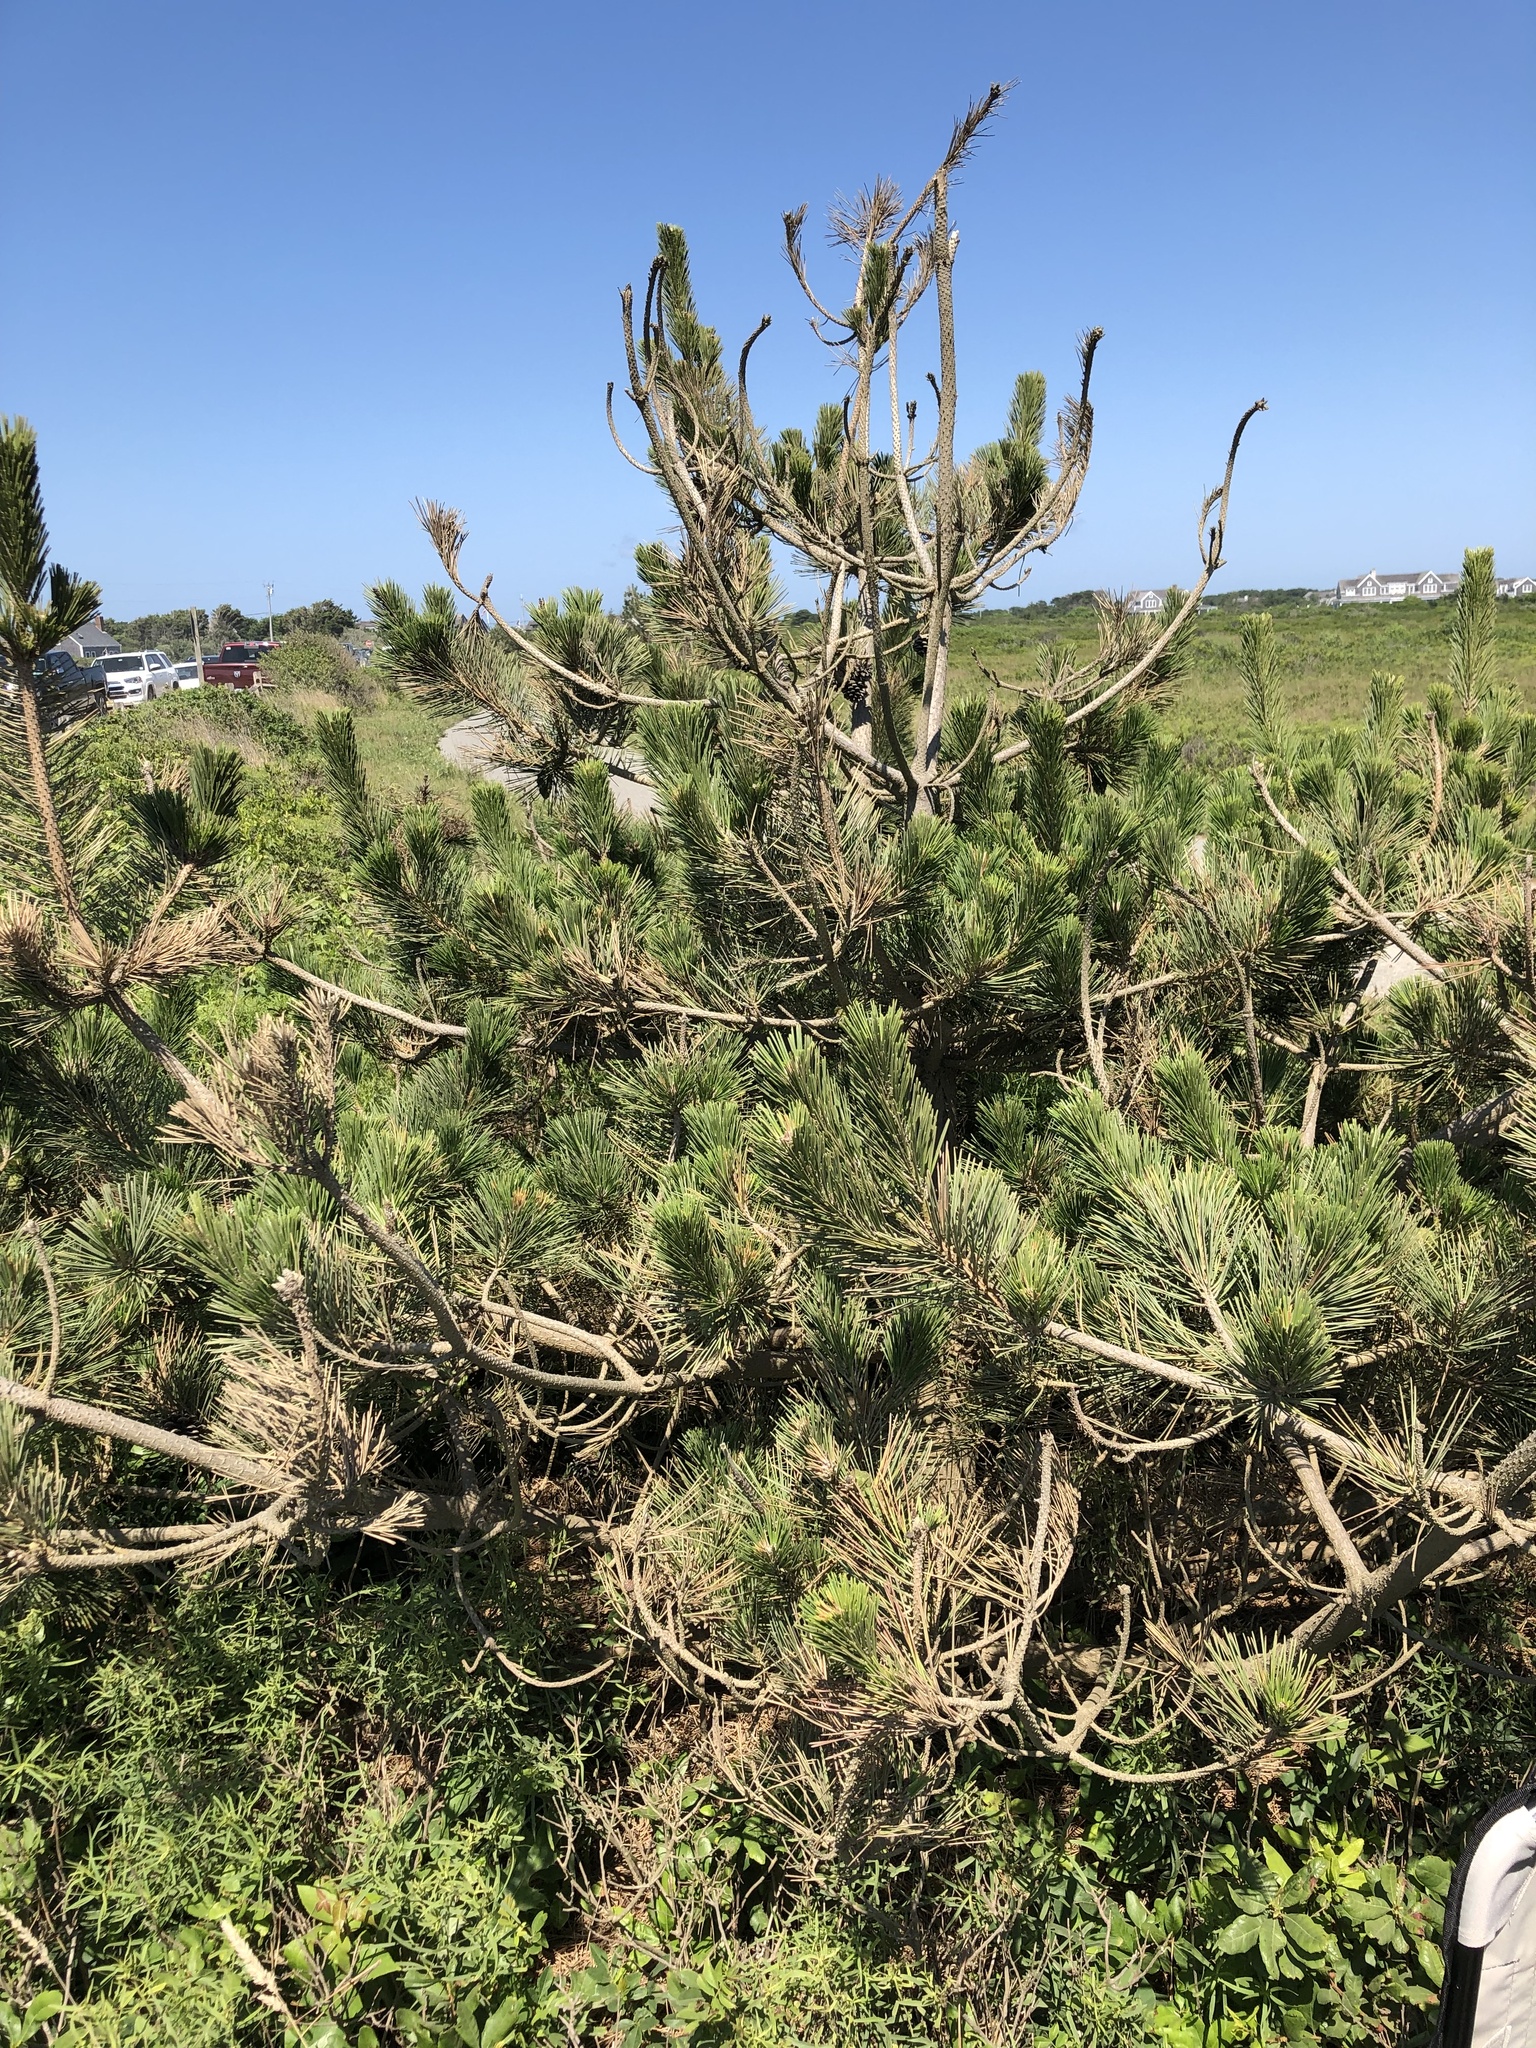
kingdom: Plantae
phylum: Tracheophyta
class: Pinopsida
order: Pinales
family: Pinaceae
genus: Pinus
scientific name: Pinus thunbergii
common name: Japanese black pine
